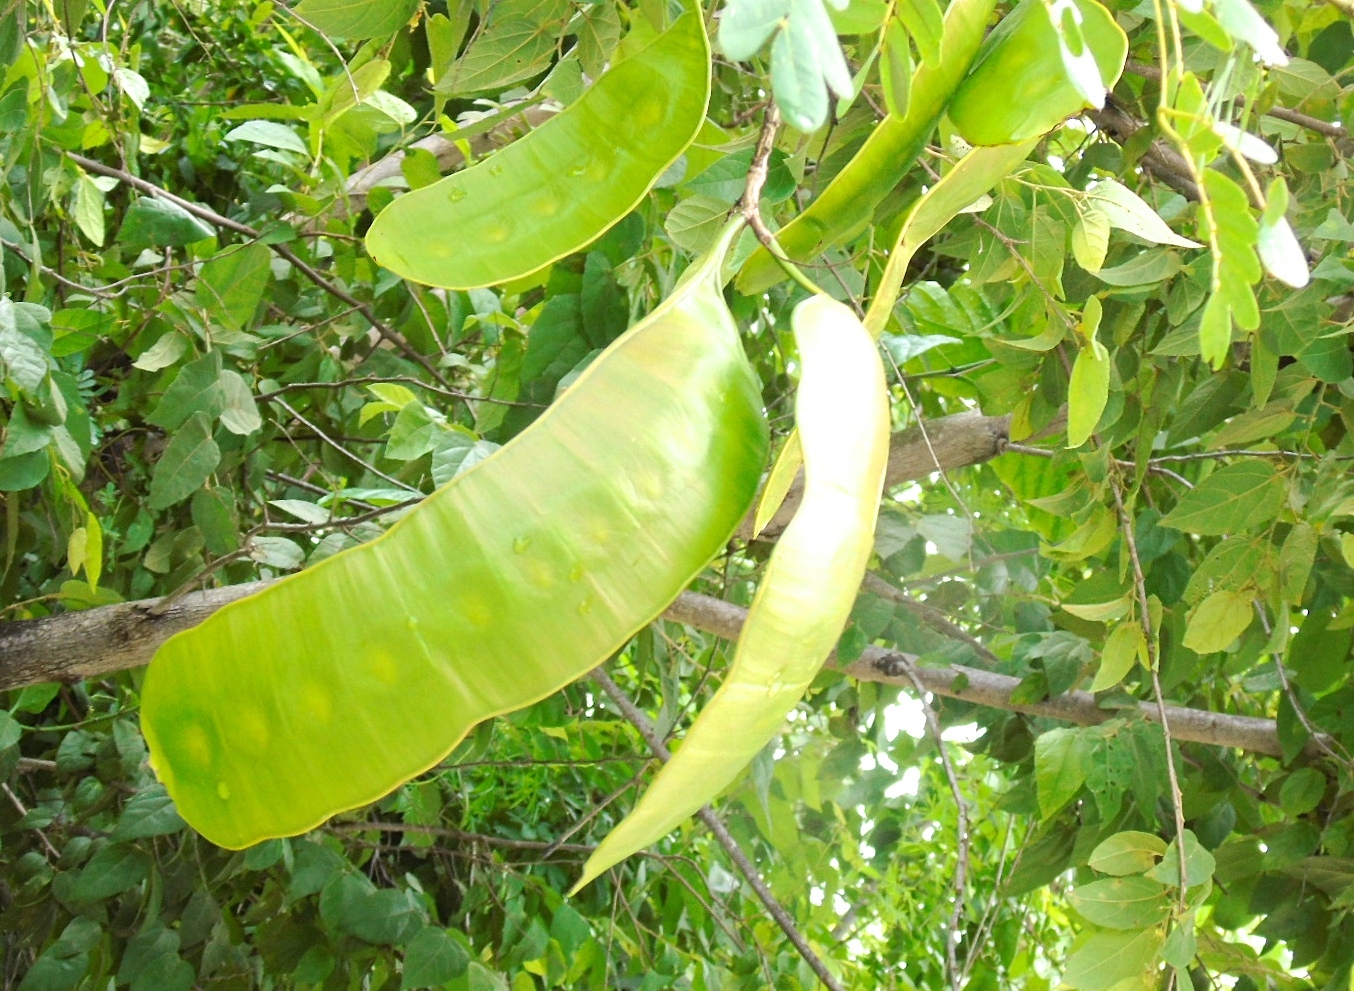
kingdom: Plantae
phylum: Tracheophyta
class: Magnoliopsida
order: Fabales
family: Fabaceae
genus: Entada
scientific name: Entada polystachya
